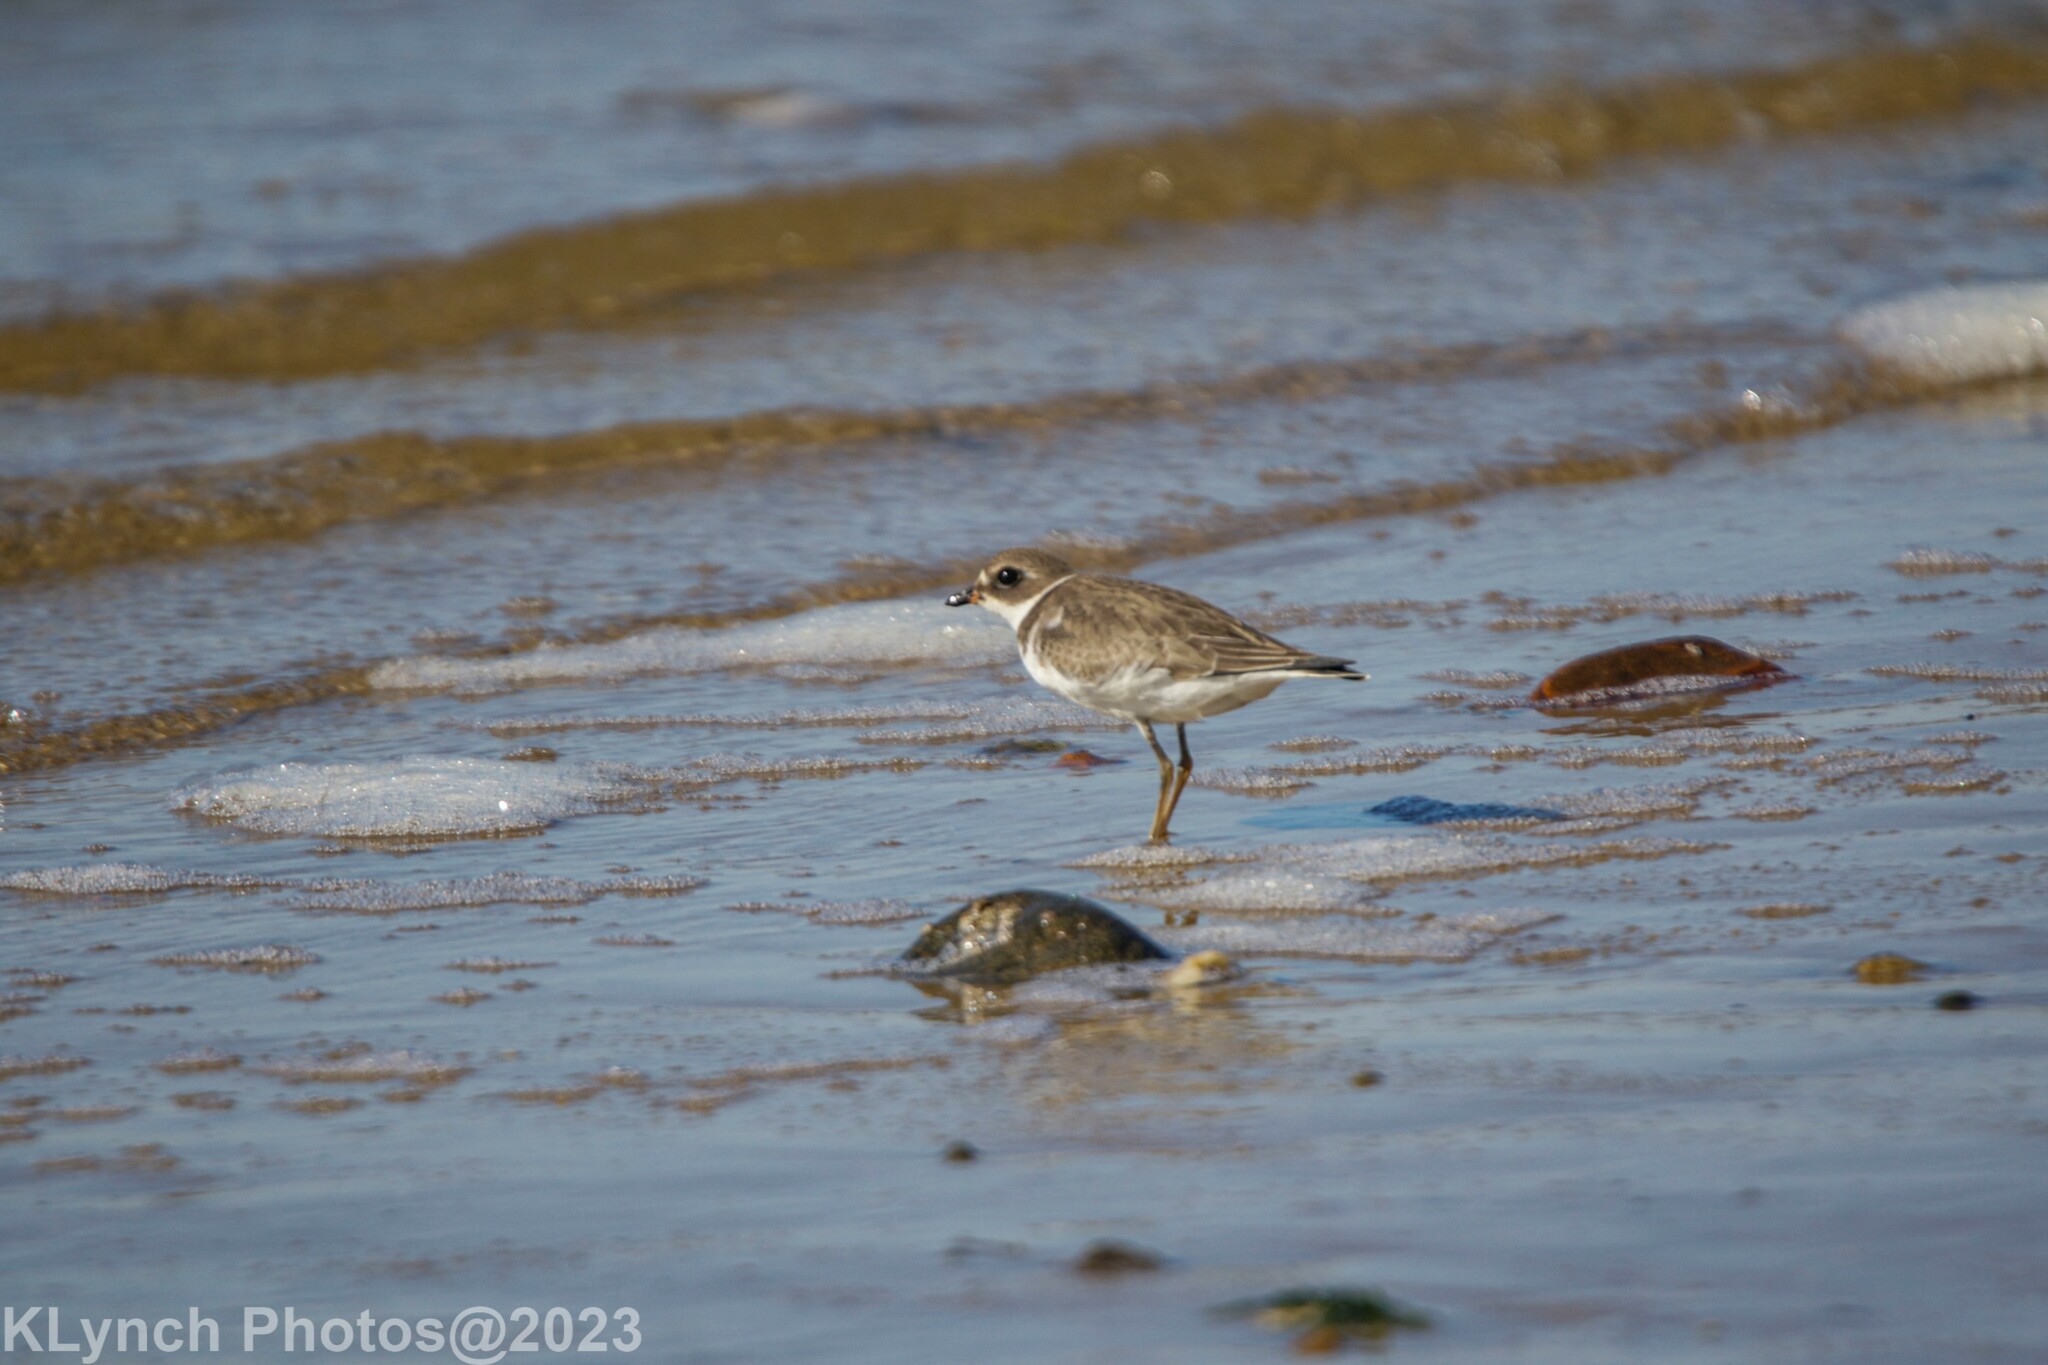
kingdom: Animalia
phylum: Chordata
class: Aves
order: Charadriiformes
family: Charadriidae
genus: Charadrius
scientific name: Charadrius semipalmatus
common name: Semipalmated plover
